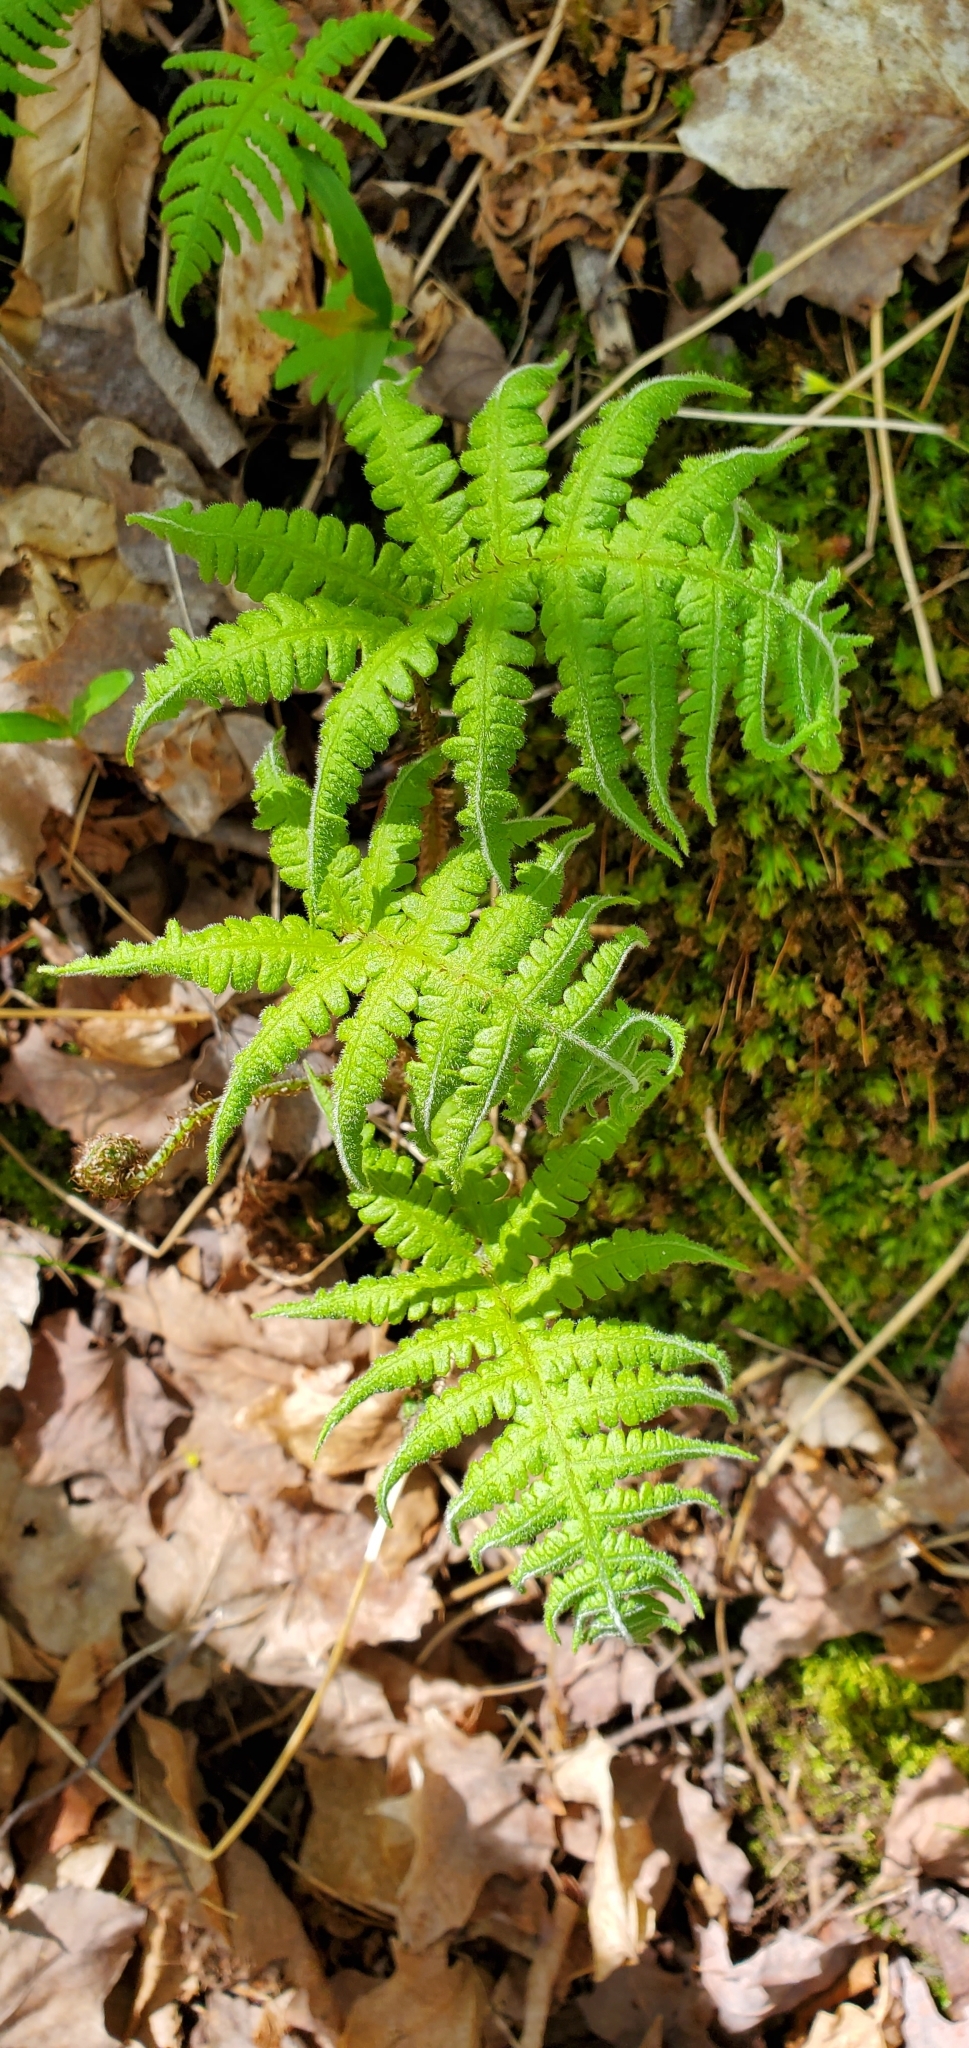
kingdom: Plantae
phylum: Tracheophyta
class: Polypodiopsida
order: Polypodiales
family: Thelypteridaceae
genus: Phegopteris
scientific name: Phegopteris connectilis
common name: Beech fern
